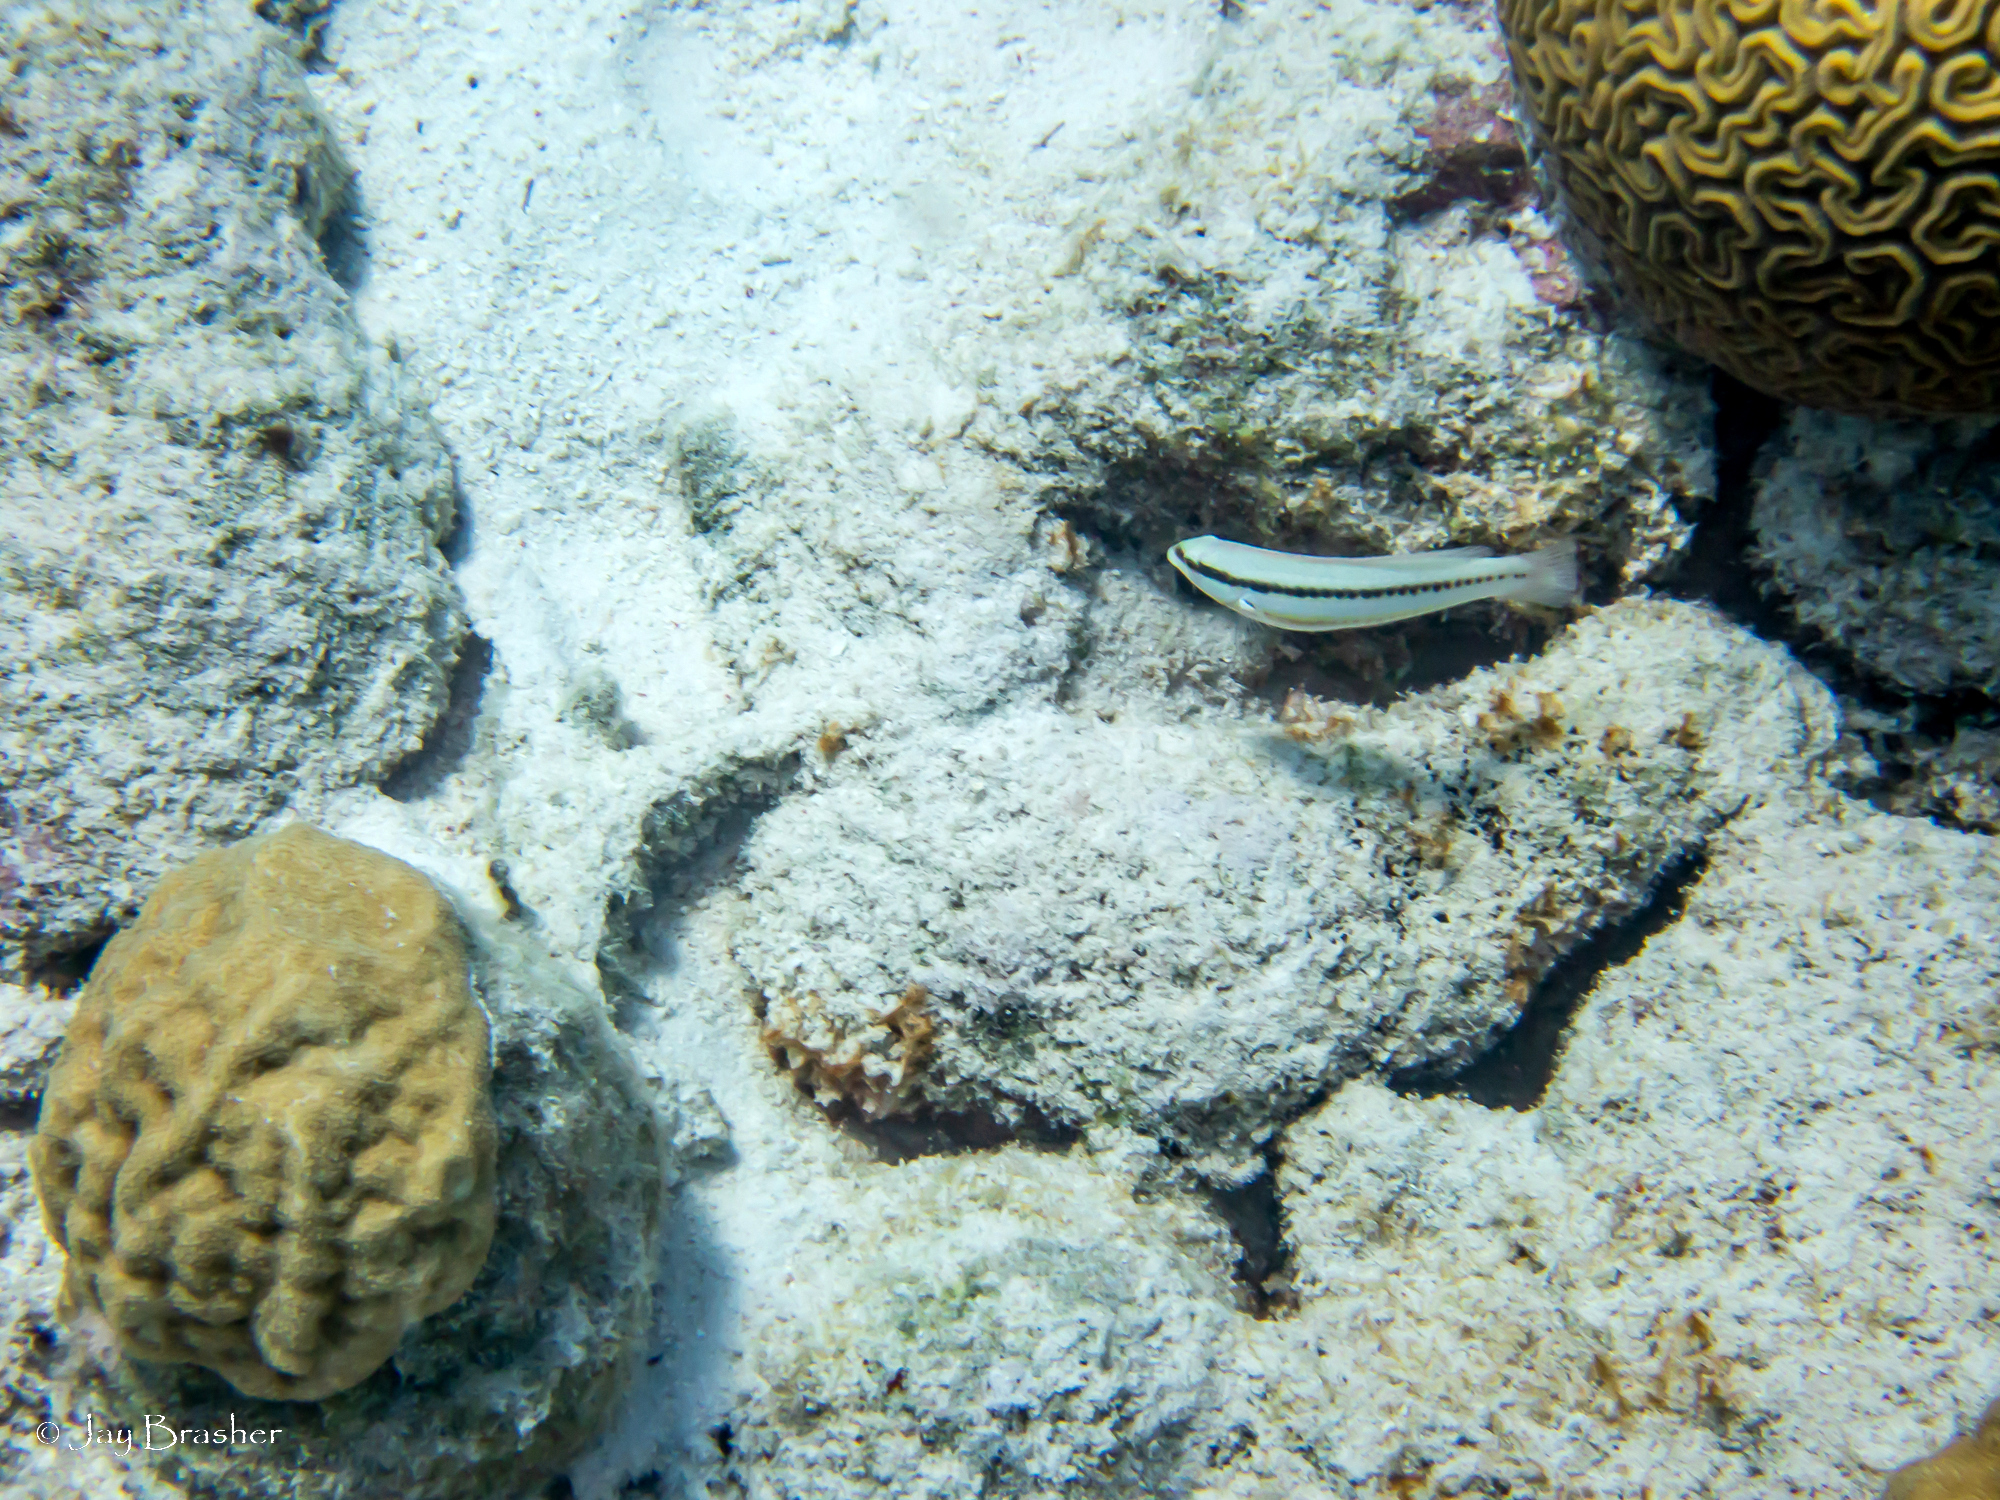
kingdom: Animalia
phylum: Cnidaria
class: Anthozoa
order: Scleractinia
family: Poritidae
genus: Porites
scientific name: Porites astreoides
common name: Mustard hill coral
